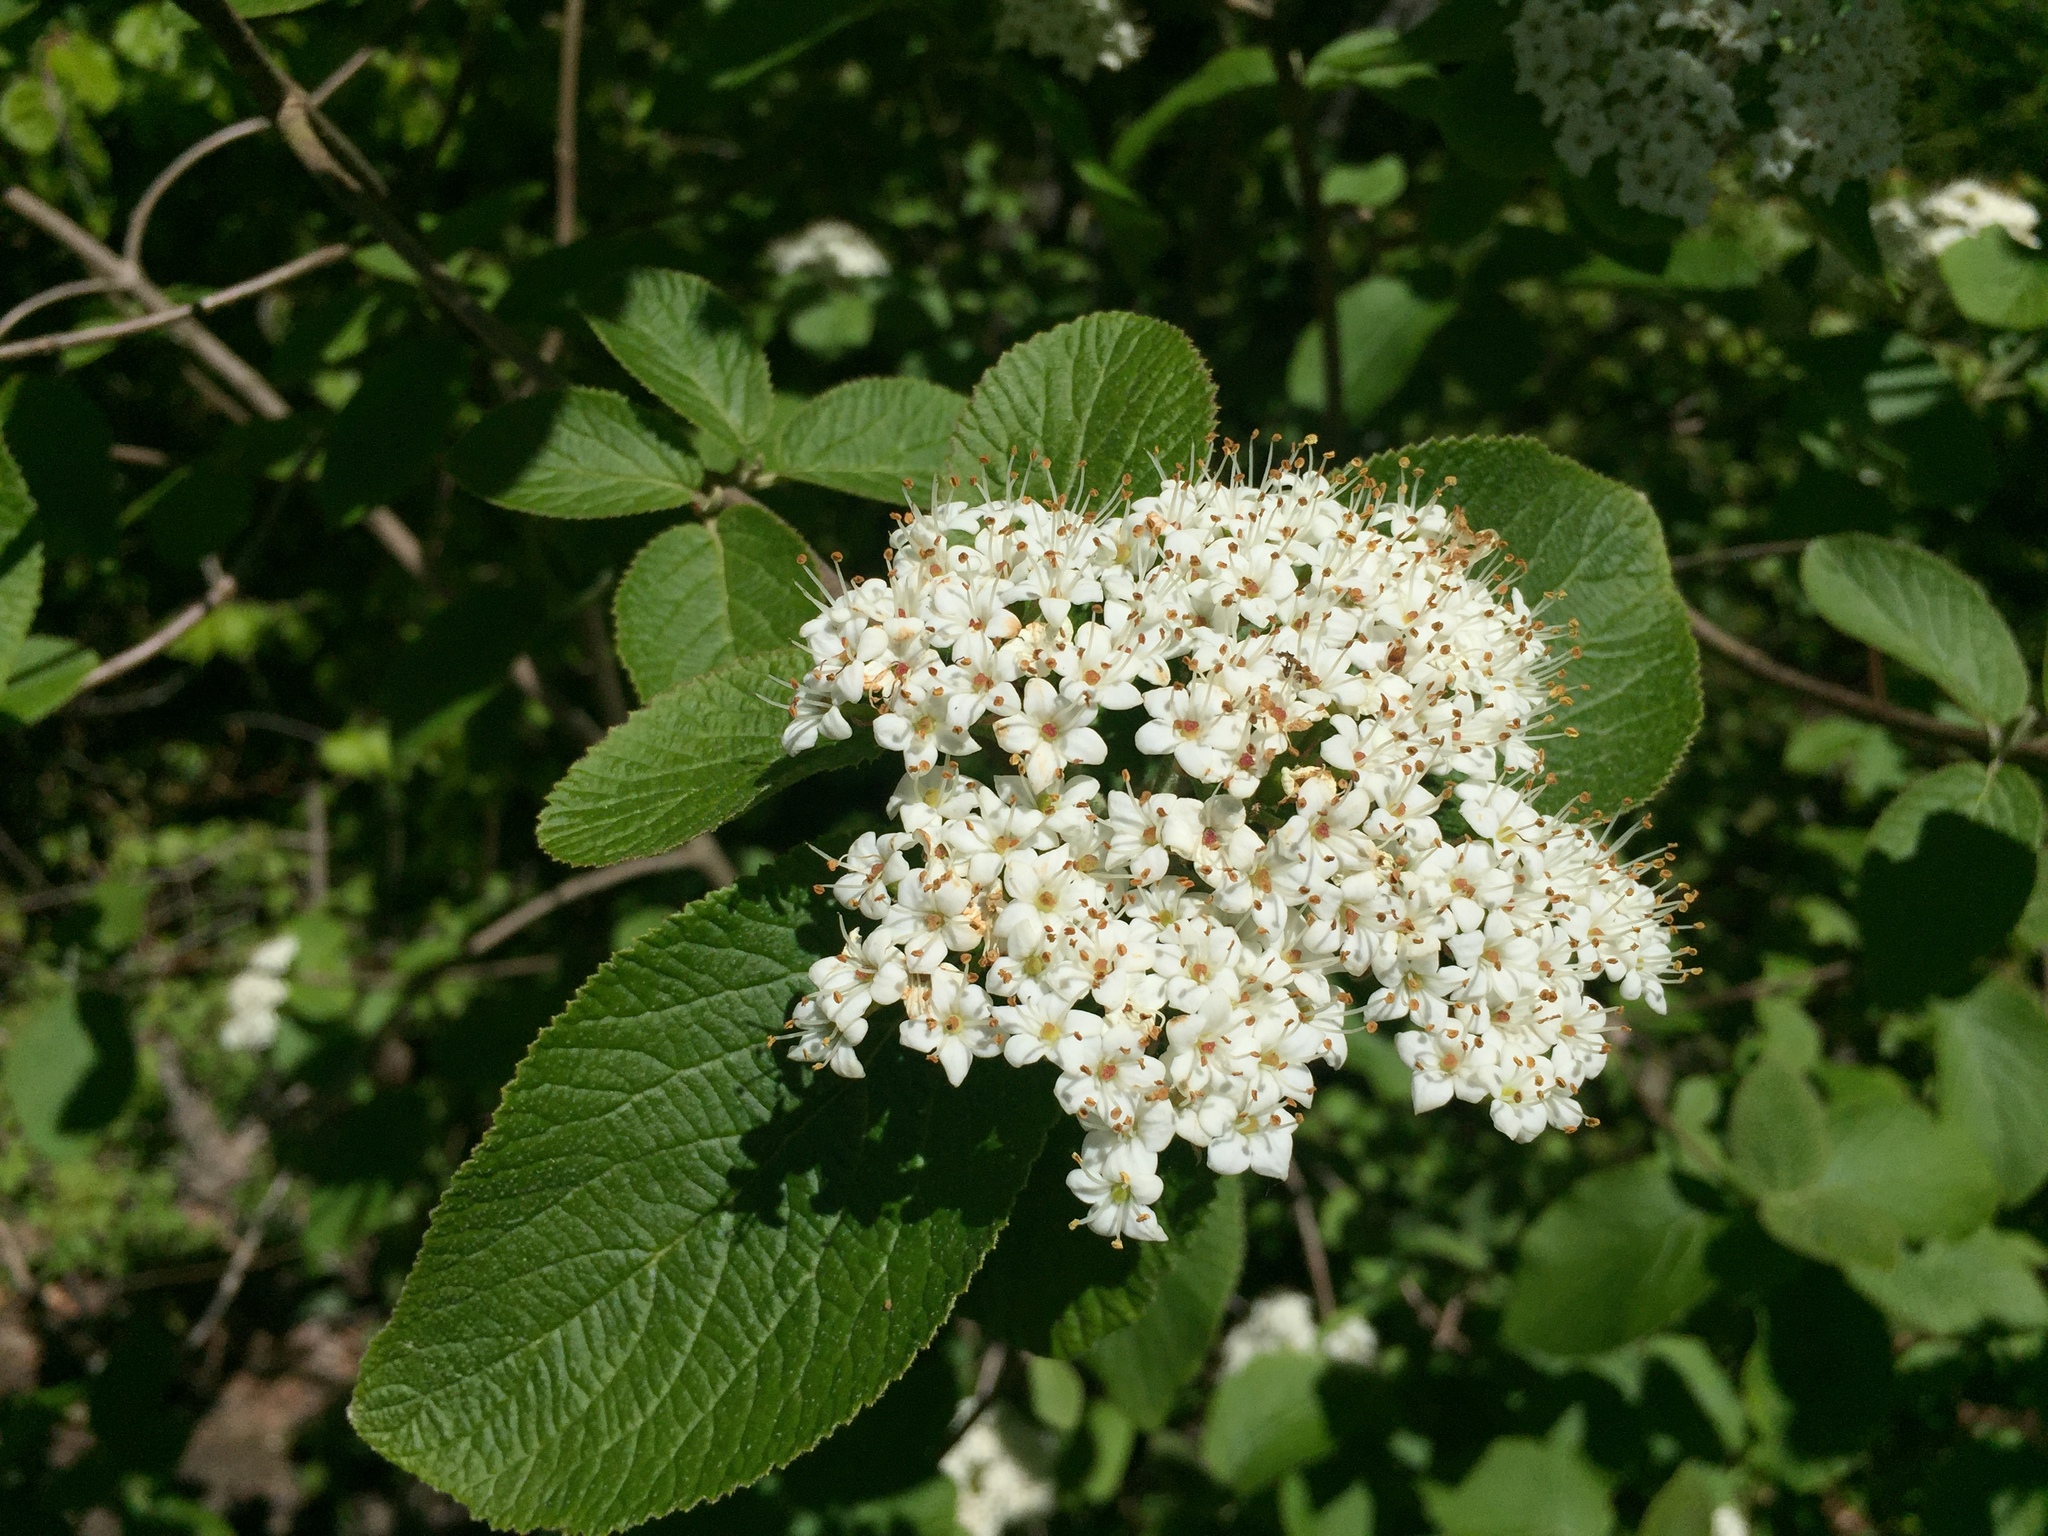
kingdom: Plantae
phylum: Tracheophyta
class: Magnoliopsida
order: Dipsacales
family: Viburnaceae
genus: Viburnum
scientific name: Viburnum lantana
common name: Wayfaring tree
